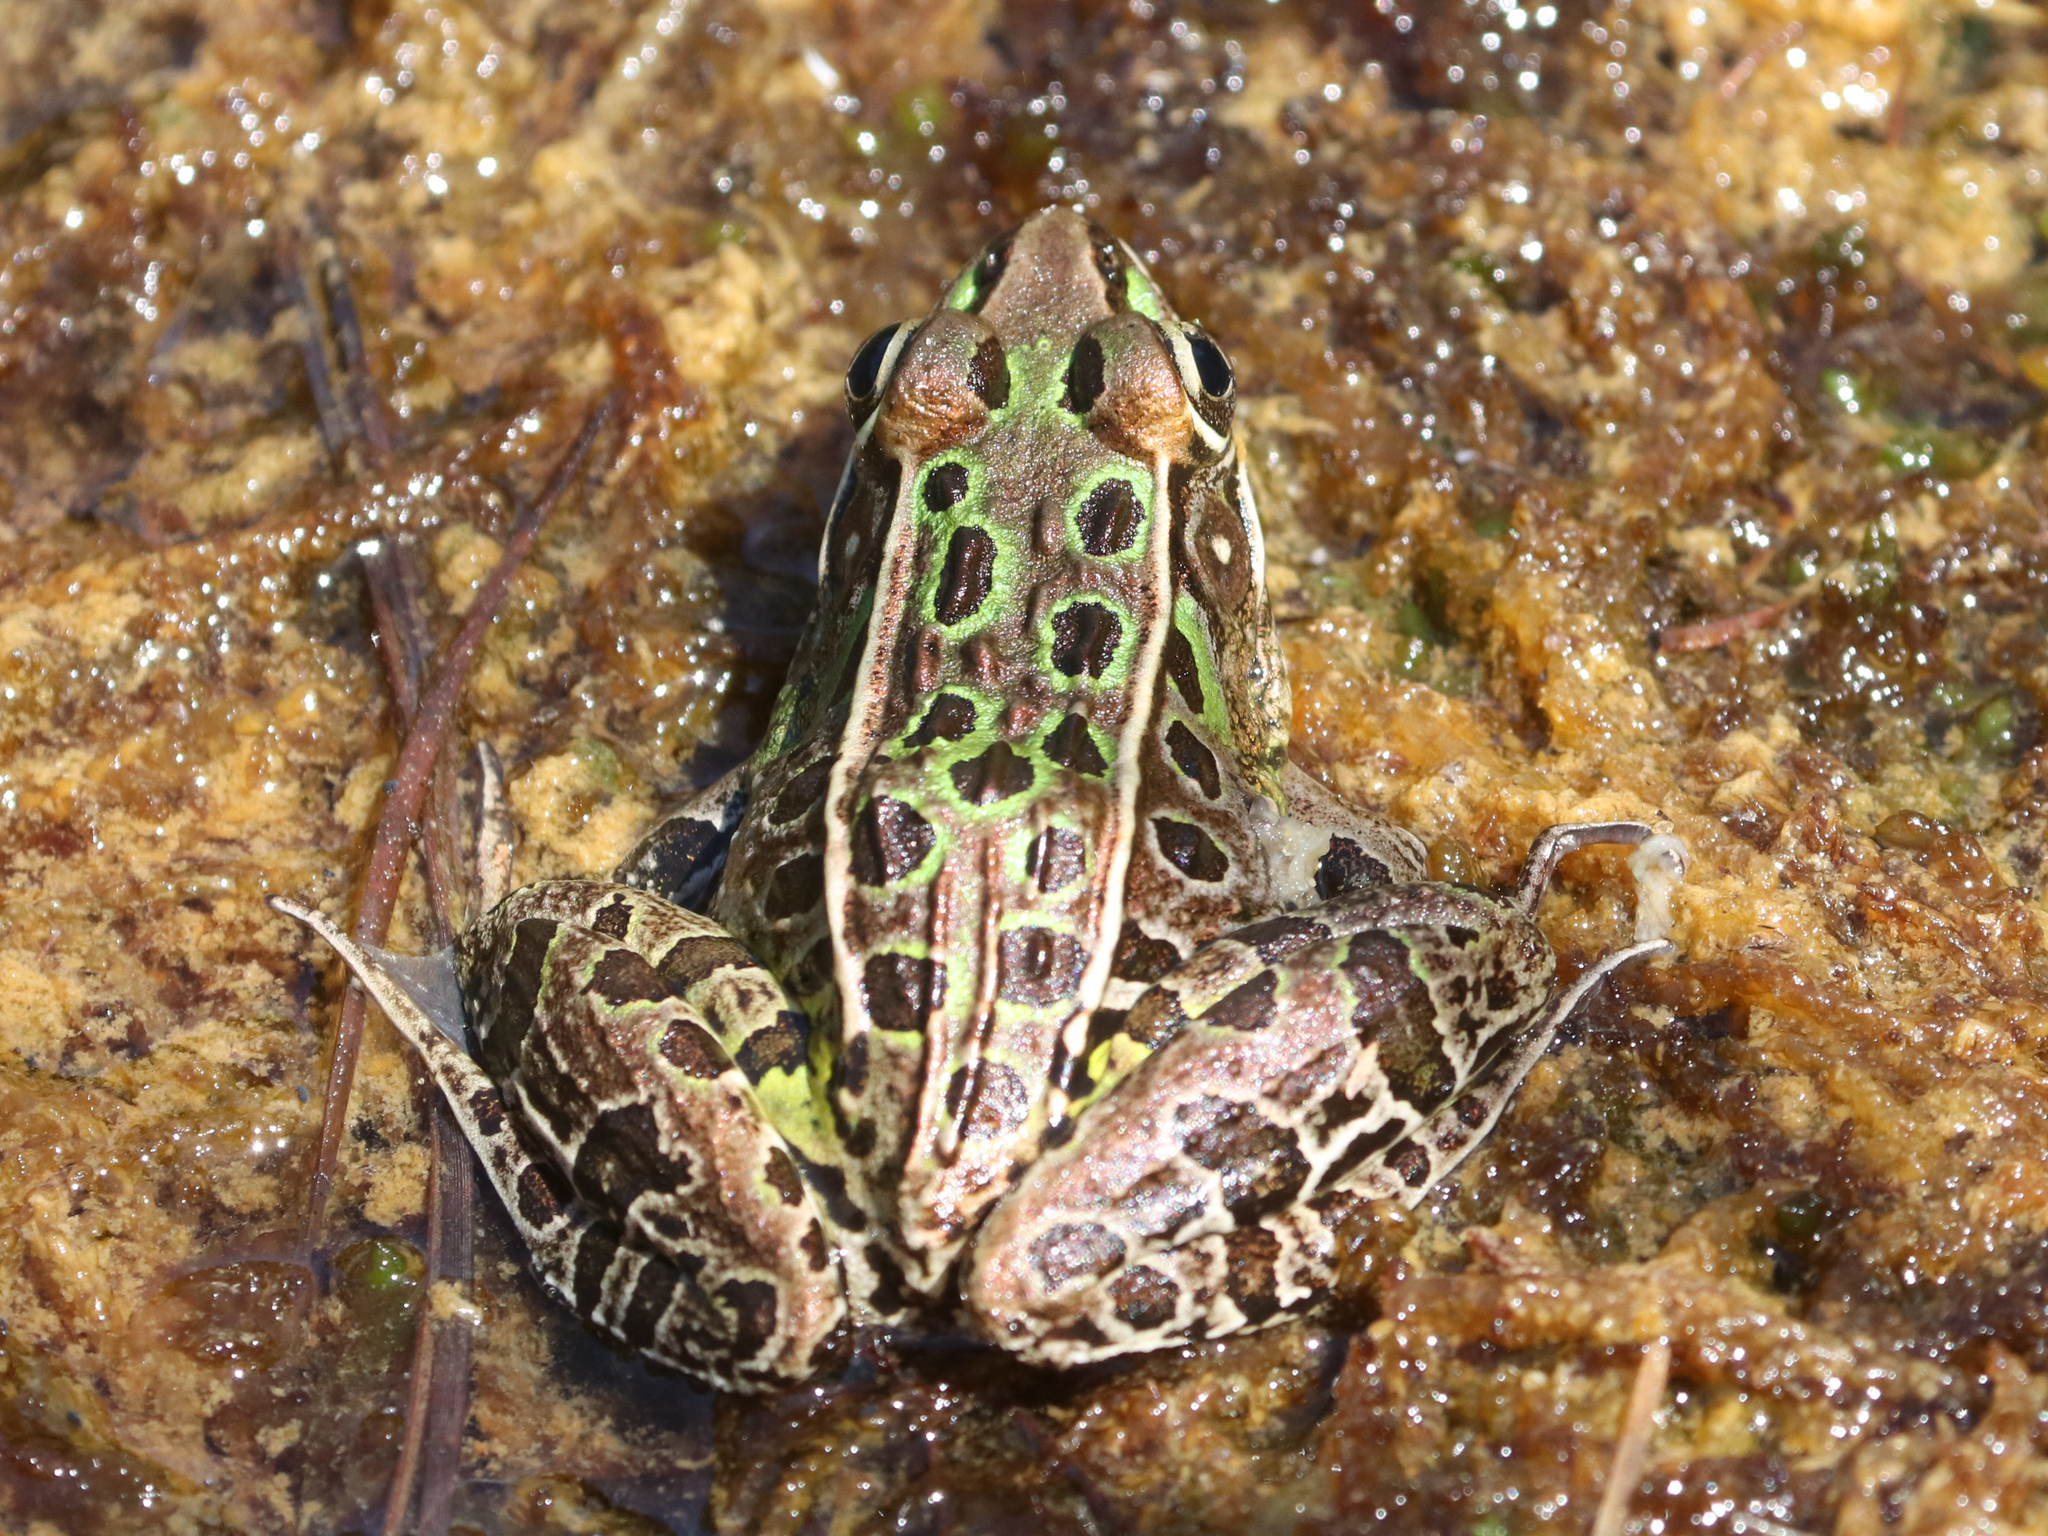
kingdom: Animalia
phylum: Chordata
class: Amphibia
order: Anura
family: Ranidae
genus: Lithobates
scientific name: Lithobates sphenocephalus
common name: Southern leopard frog
